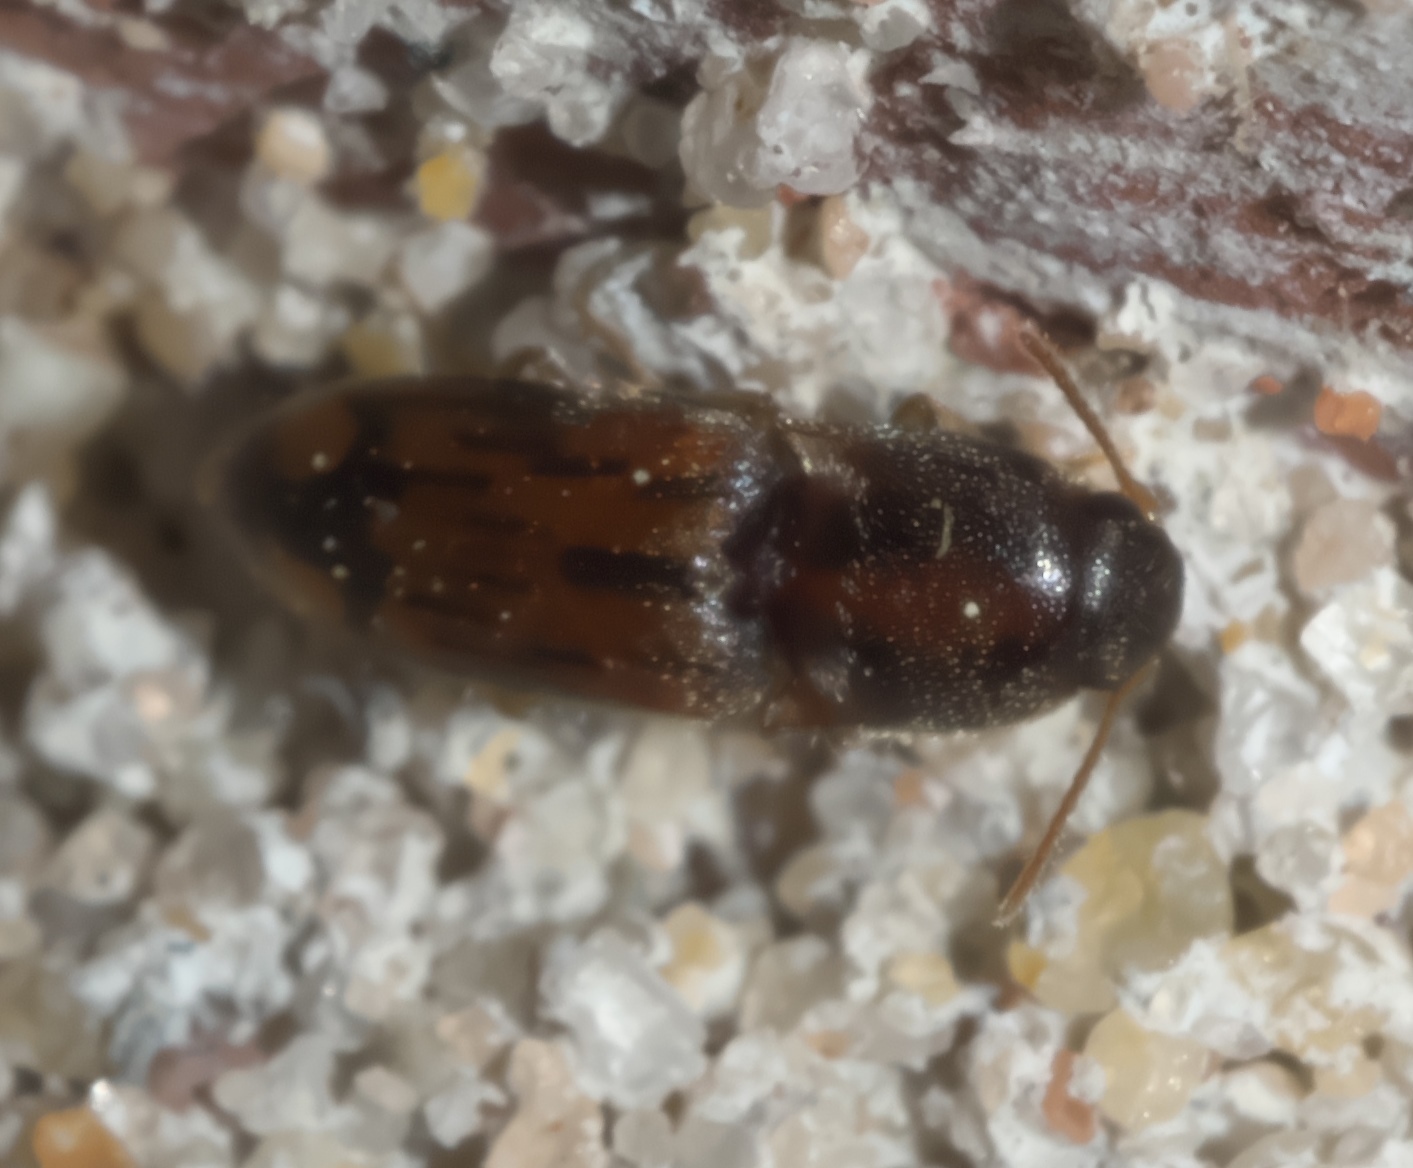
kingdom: Animalia
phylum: Arthropoda
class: Insecta
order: Coleoptera
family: Elateridae
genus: Monocrepidius
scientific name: Monocrepidius bellus
